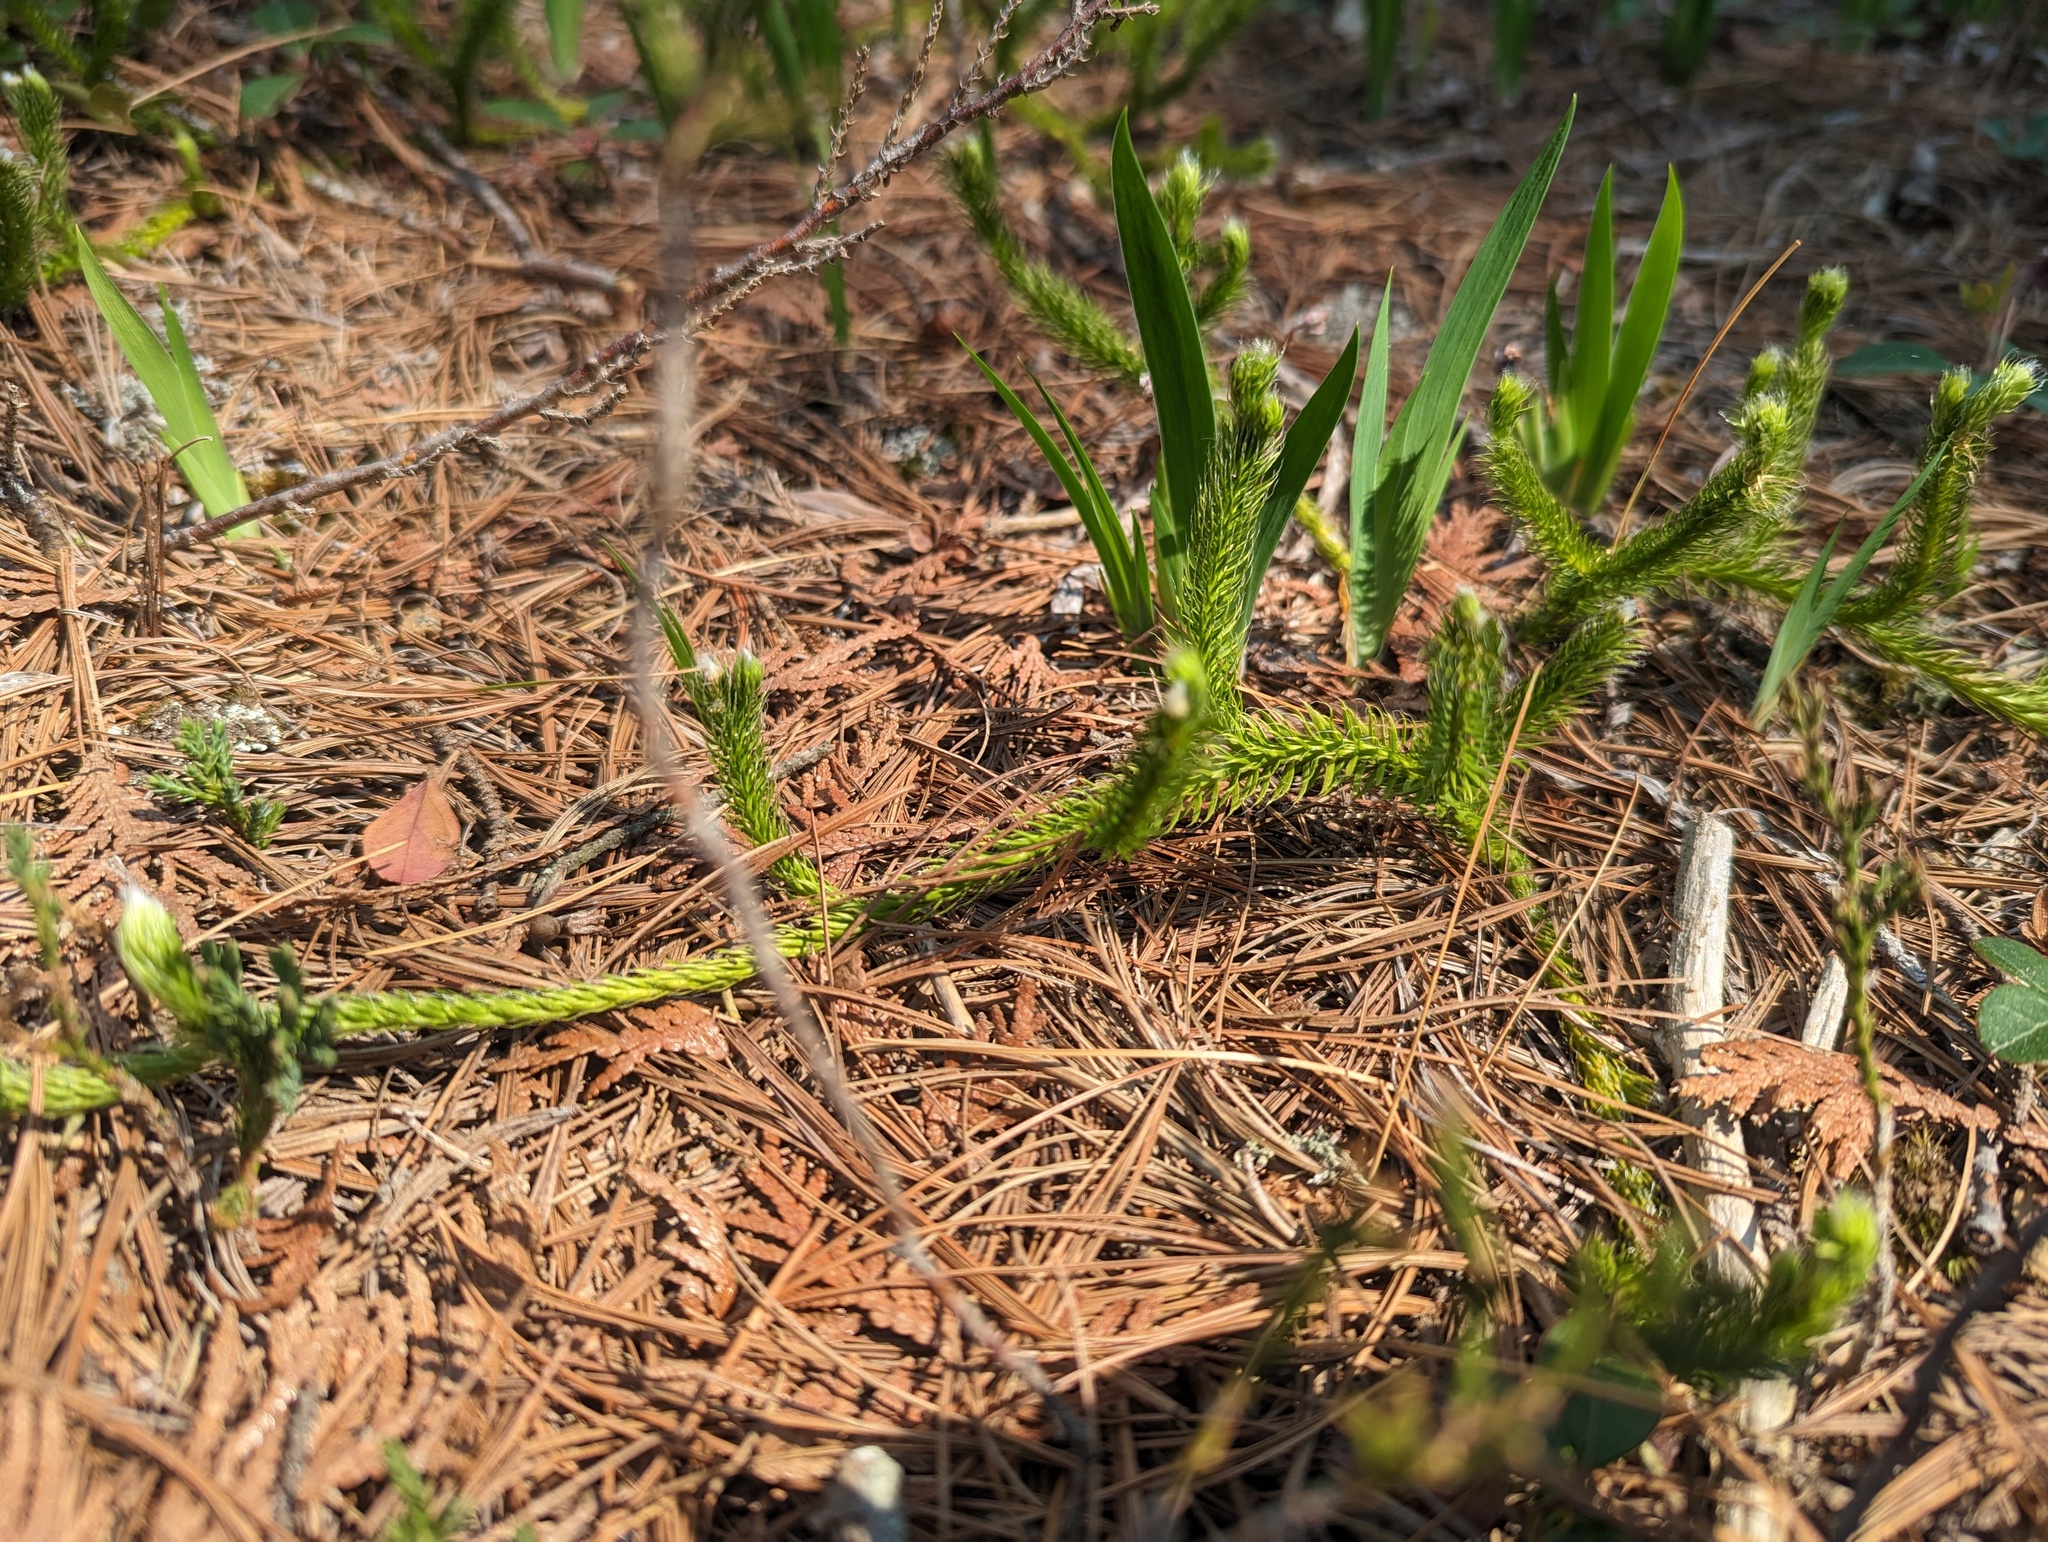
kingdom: Plantae
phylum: Tracheophyta
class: Lycopodiopsida
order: Lycopodiales
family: Lycopodiaceae
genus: Lycopodium
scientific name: Lycopodium clavatum
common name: Stag's-horn clubmoss
